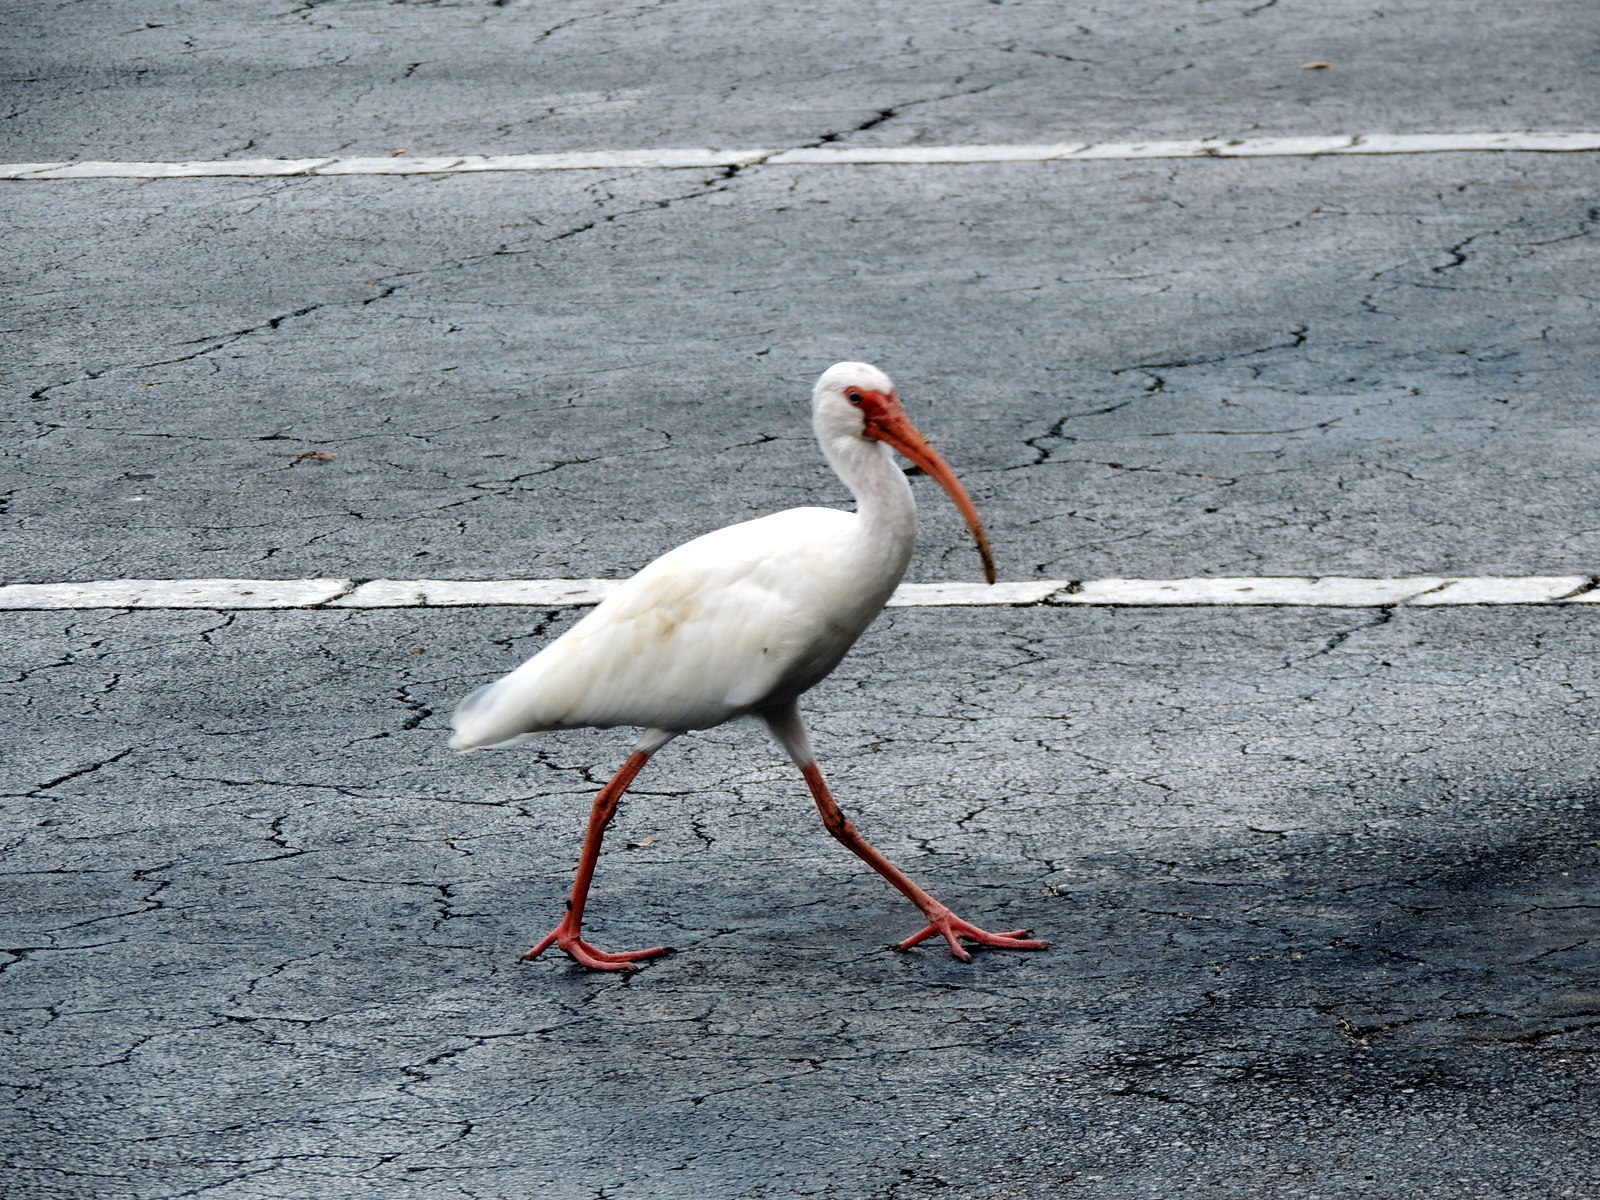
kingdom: Animalia
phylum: Chordata
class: Aves
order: Pelecaniformes
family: Threskiornithidae
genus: Eudocimus
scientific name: Eudocimus albus
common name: White ibis
